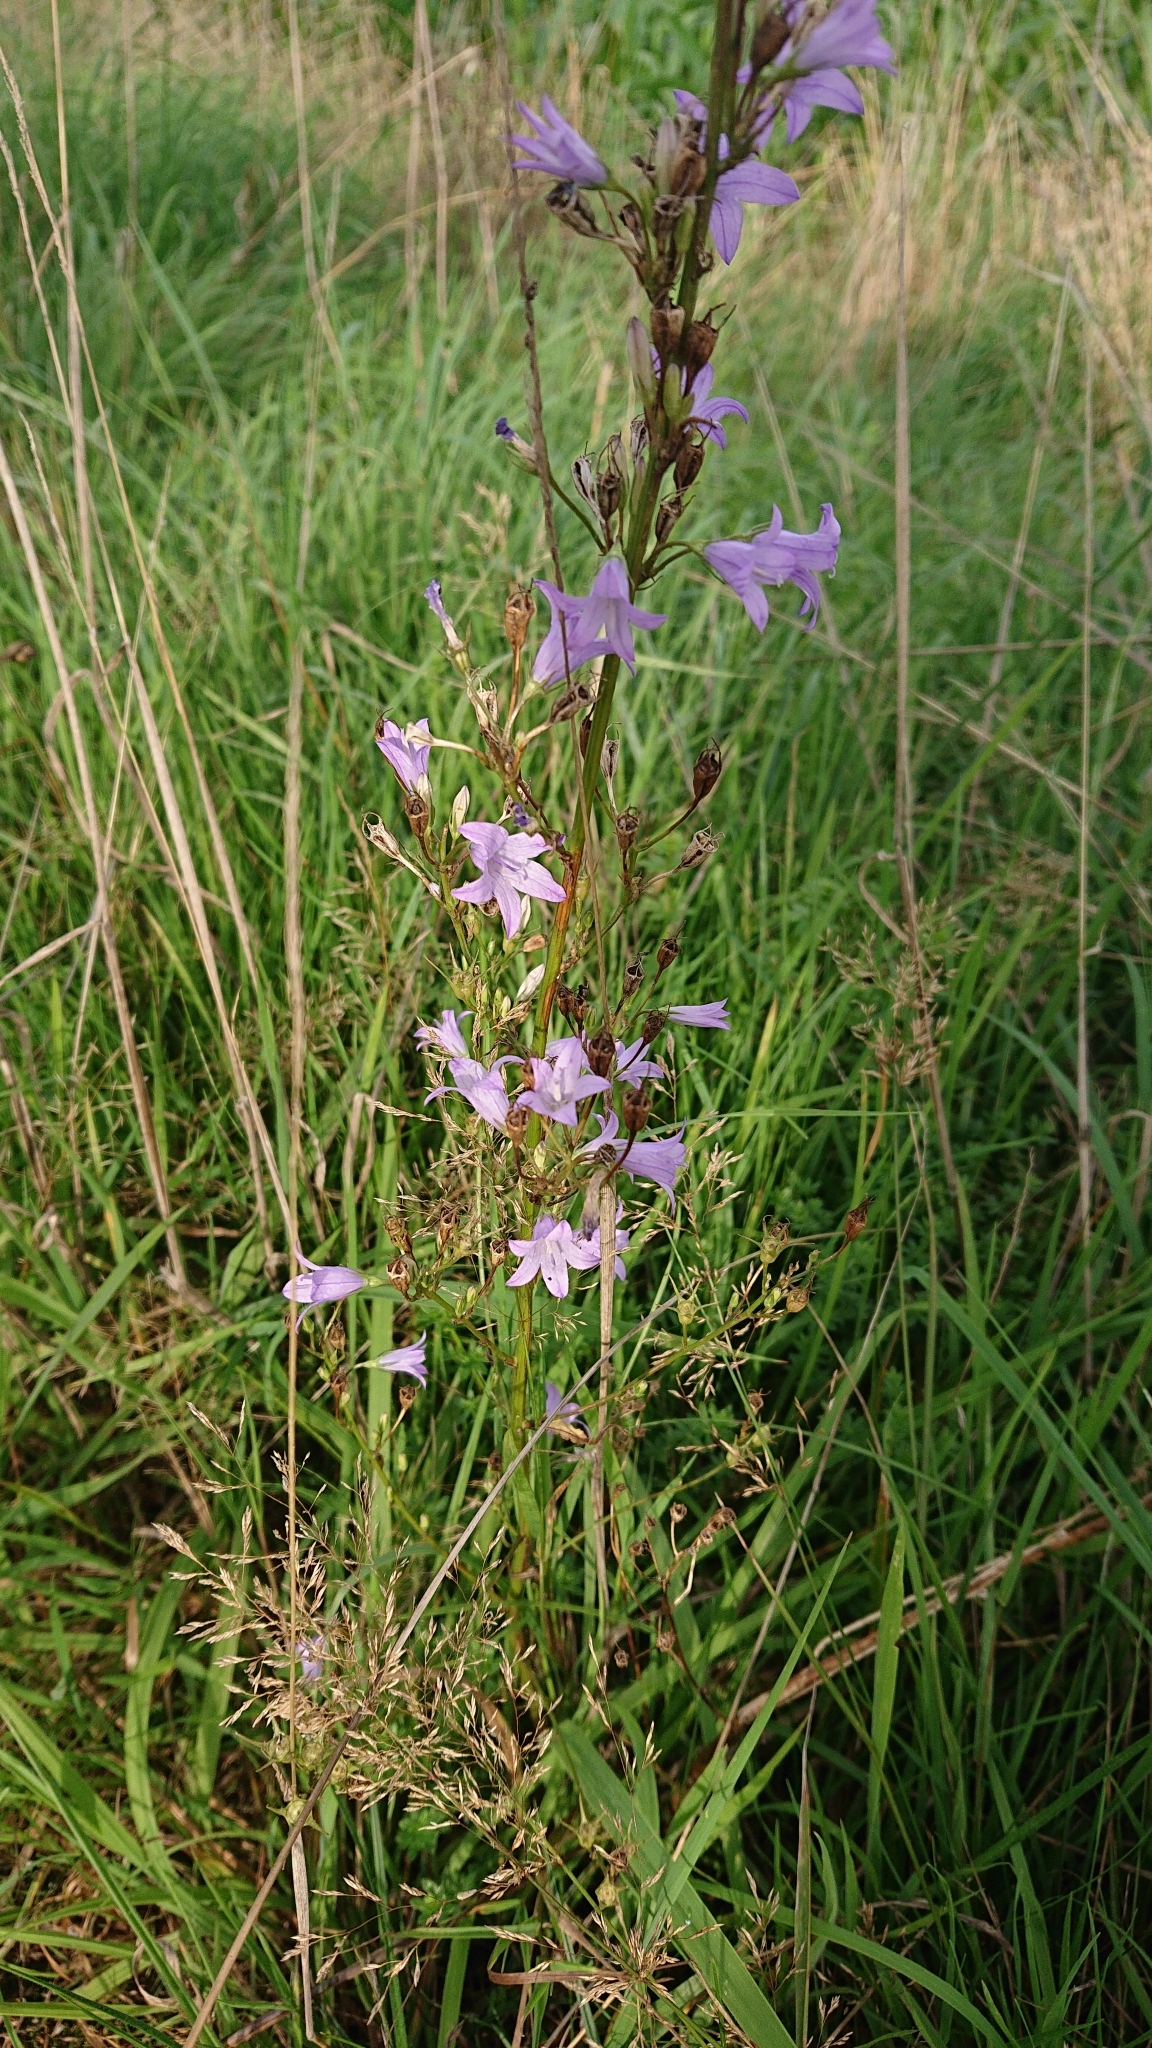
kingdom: Plantae
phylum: Tracheophyta
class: Magnoliopsida
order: Asterales
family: Campanulaceae
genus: Campanula
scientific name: Campanula rapunculus
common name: Rampion bellflower
